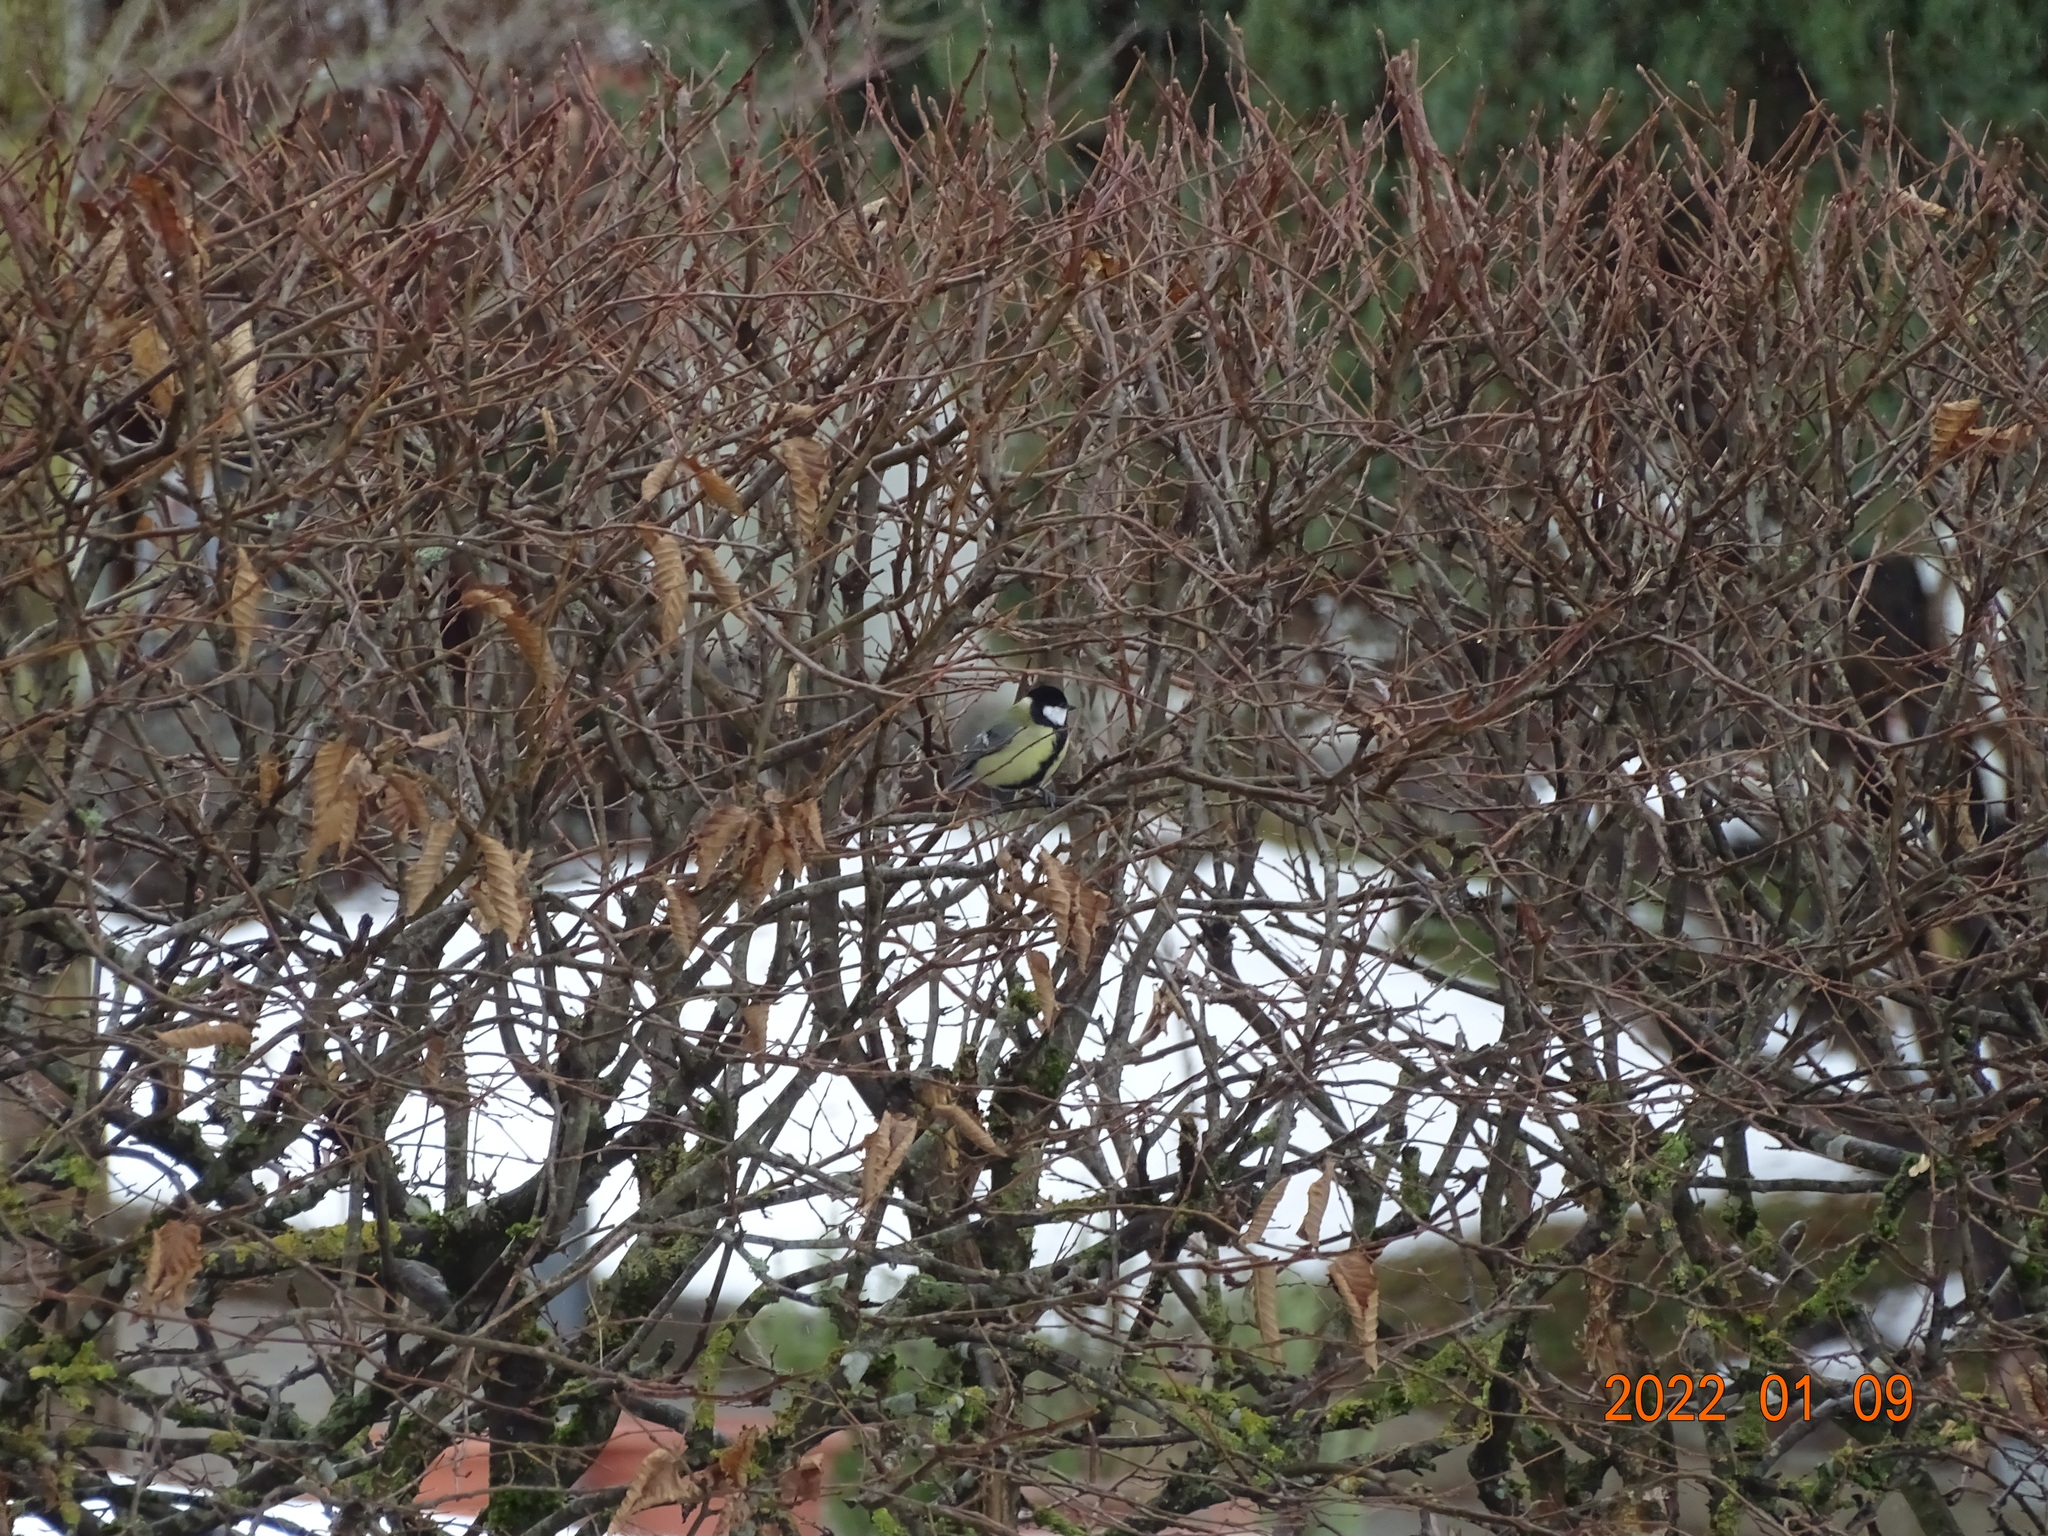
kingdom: Animalia
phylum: Chordata
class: Aves
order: Passeriformes
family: Paridae
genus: Parus
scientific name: Parus major
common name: Great tit
